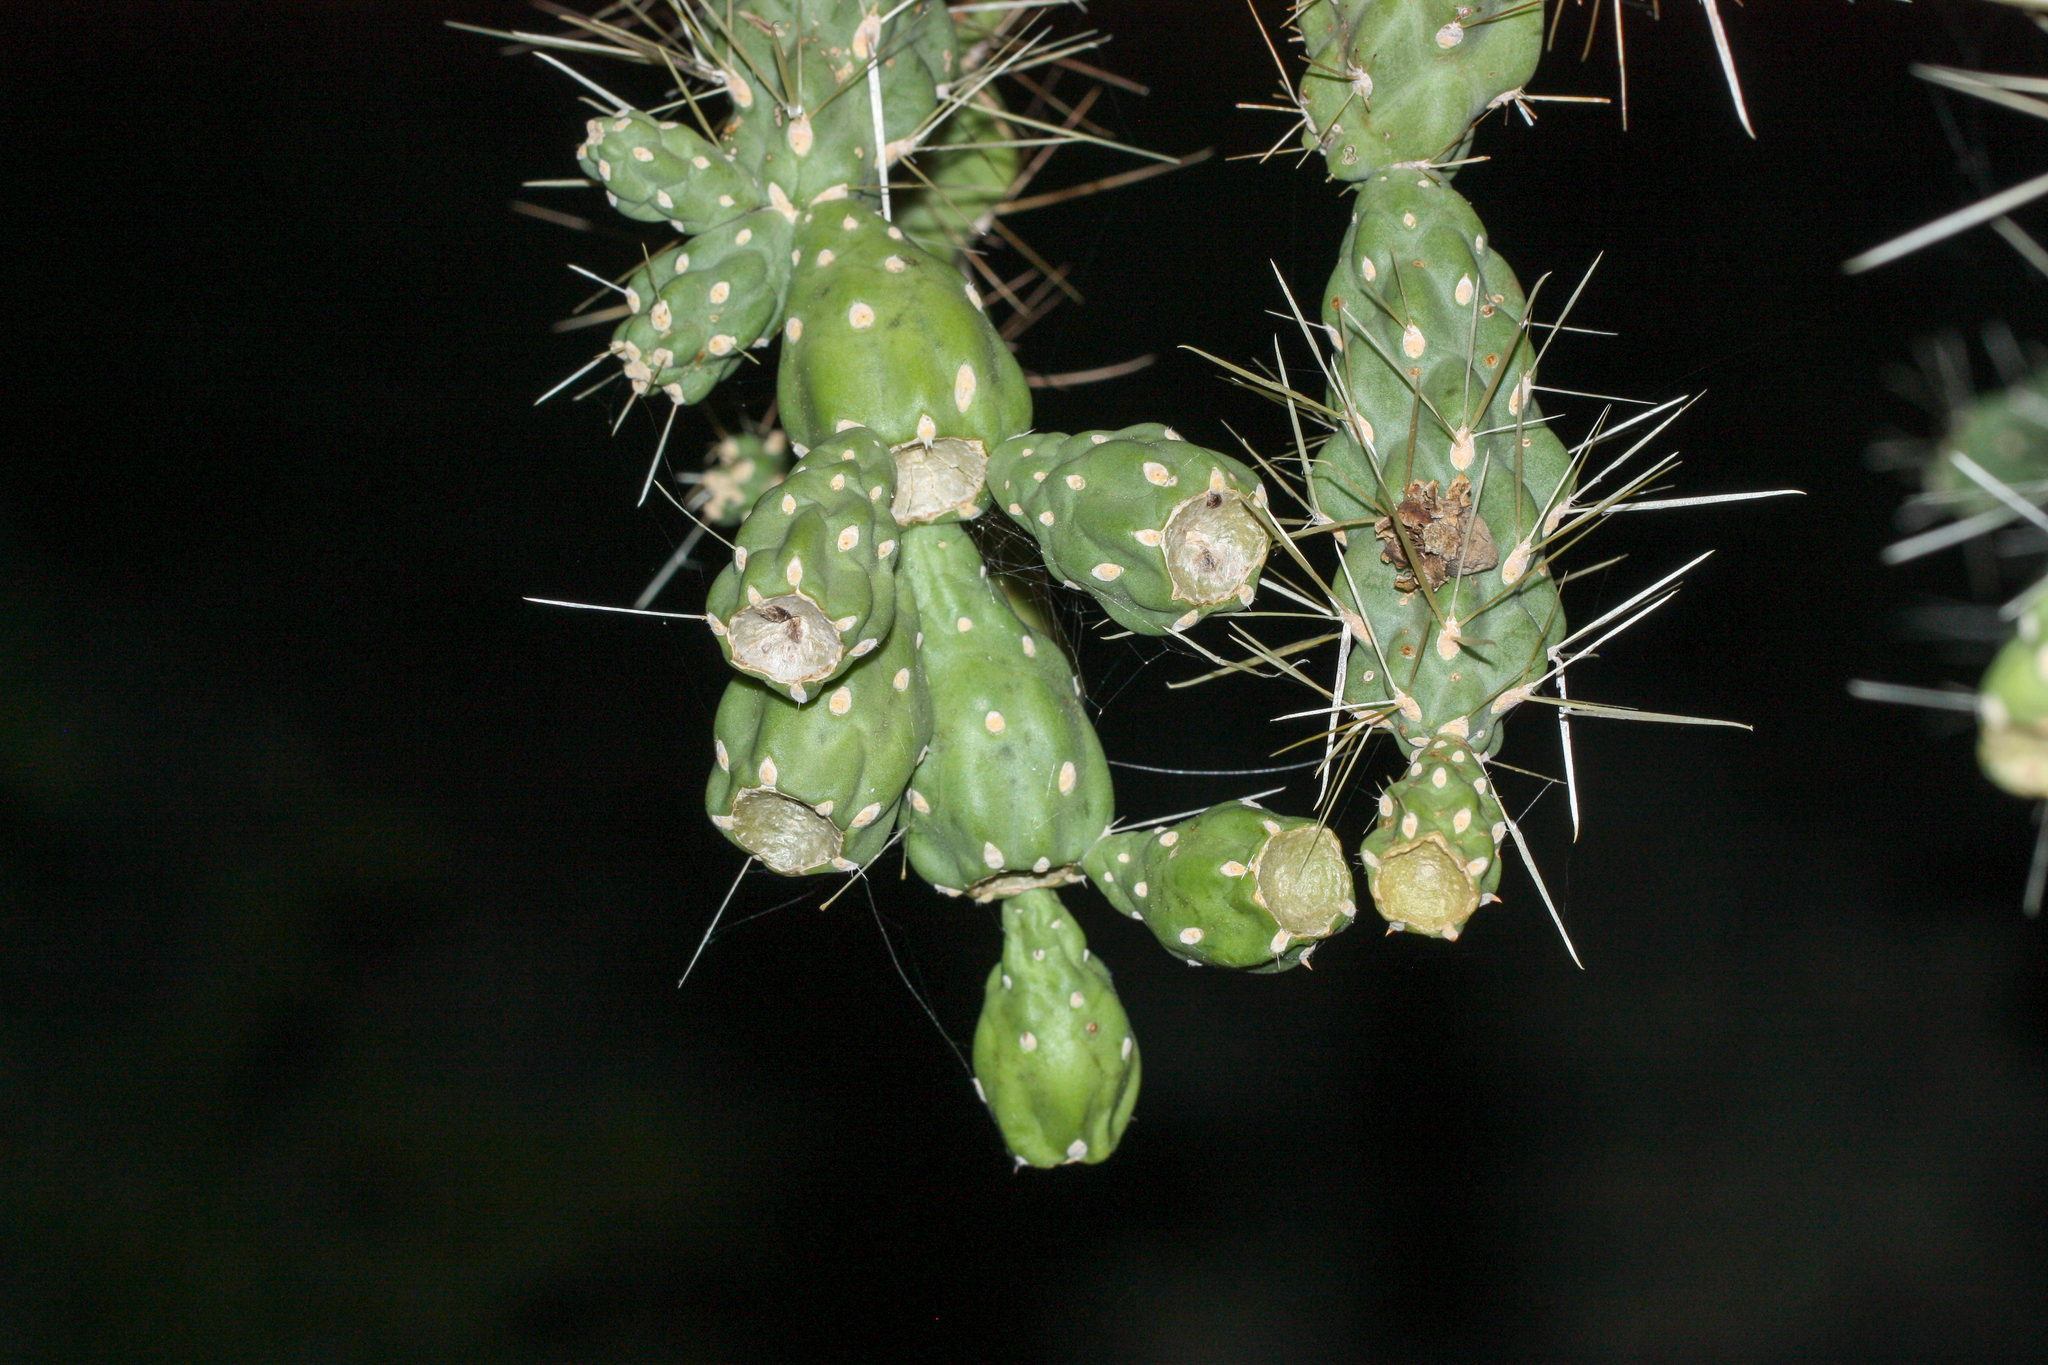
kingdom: Plantae
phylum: Tracheophyta
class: Magnoliopsida
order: Caryophyllales
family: Cactaceae
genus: Cylindropuntia
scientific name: Cylindropuntia fulgida
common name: Jumping cholla
